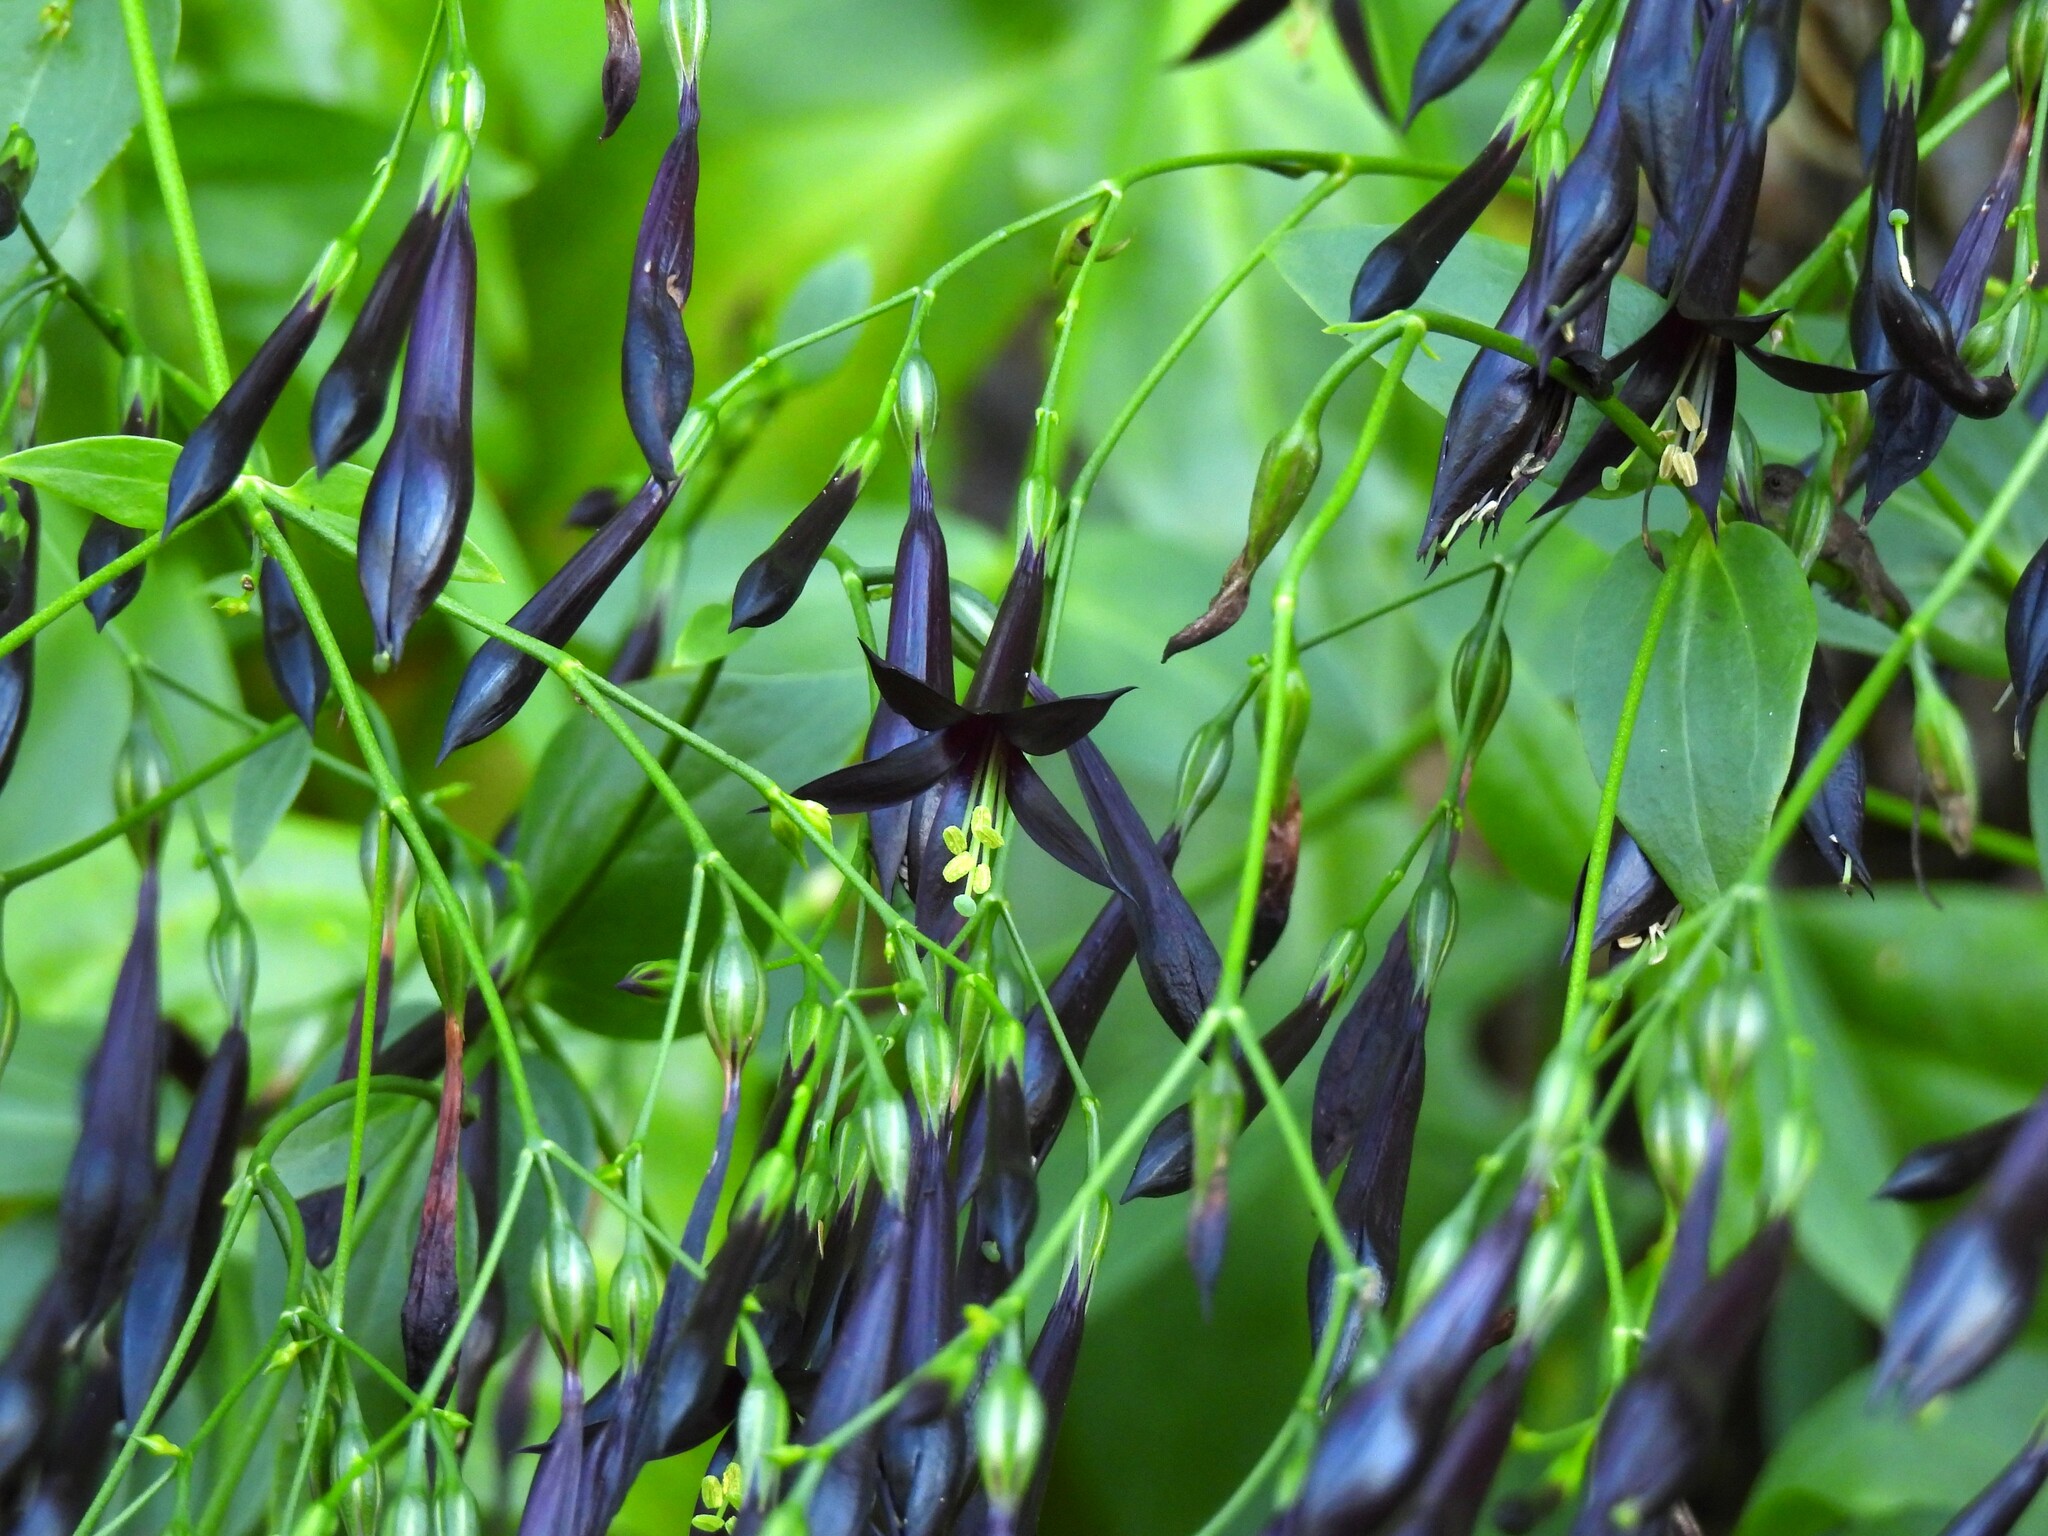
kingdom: Plantae
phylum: Tracheophyta
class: Magnoliopsida
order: Gentianales
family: Gentianaceae
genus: Lisianthus
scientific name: Lisianthus nigrescens
